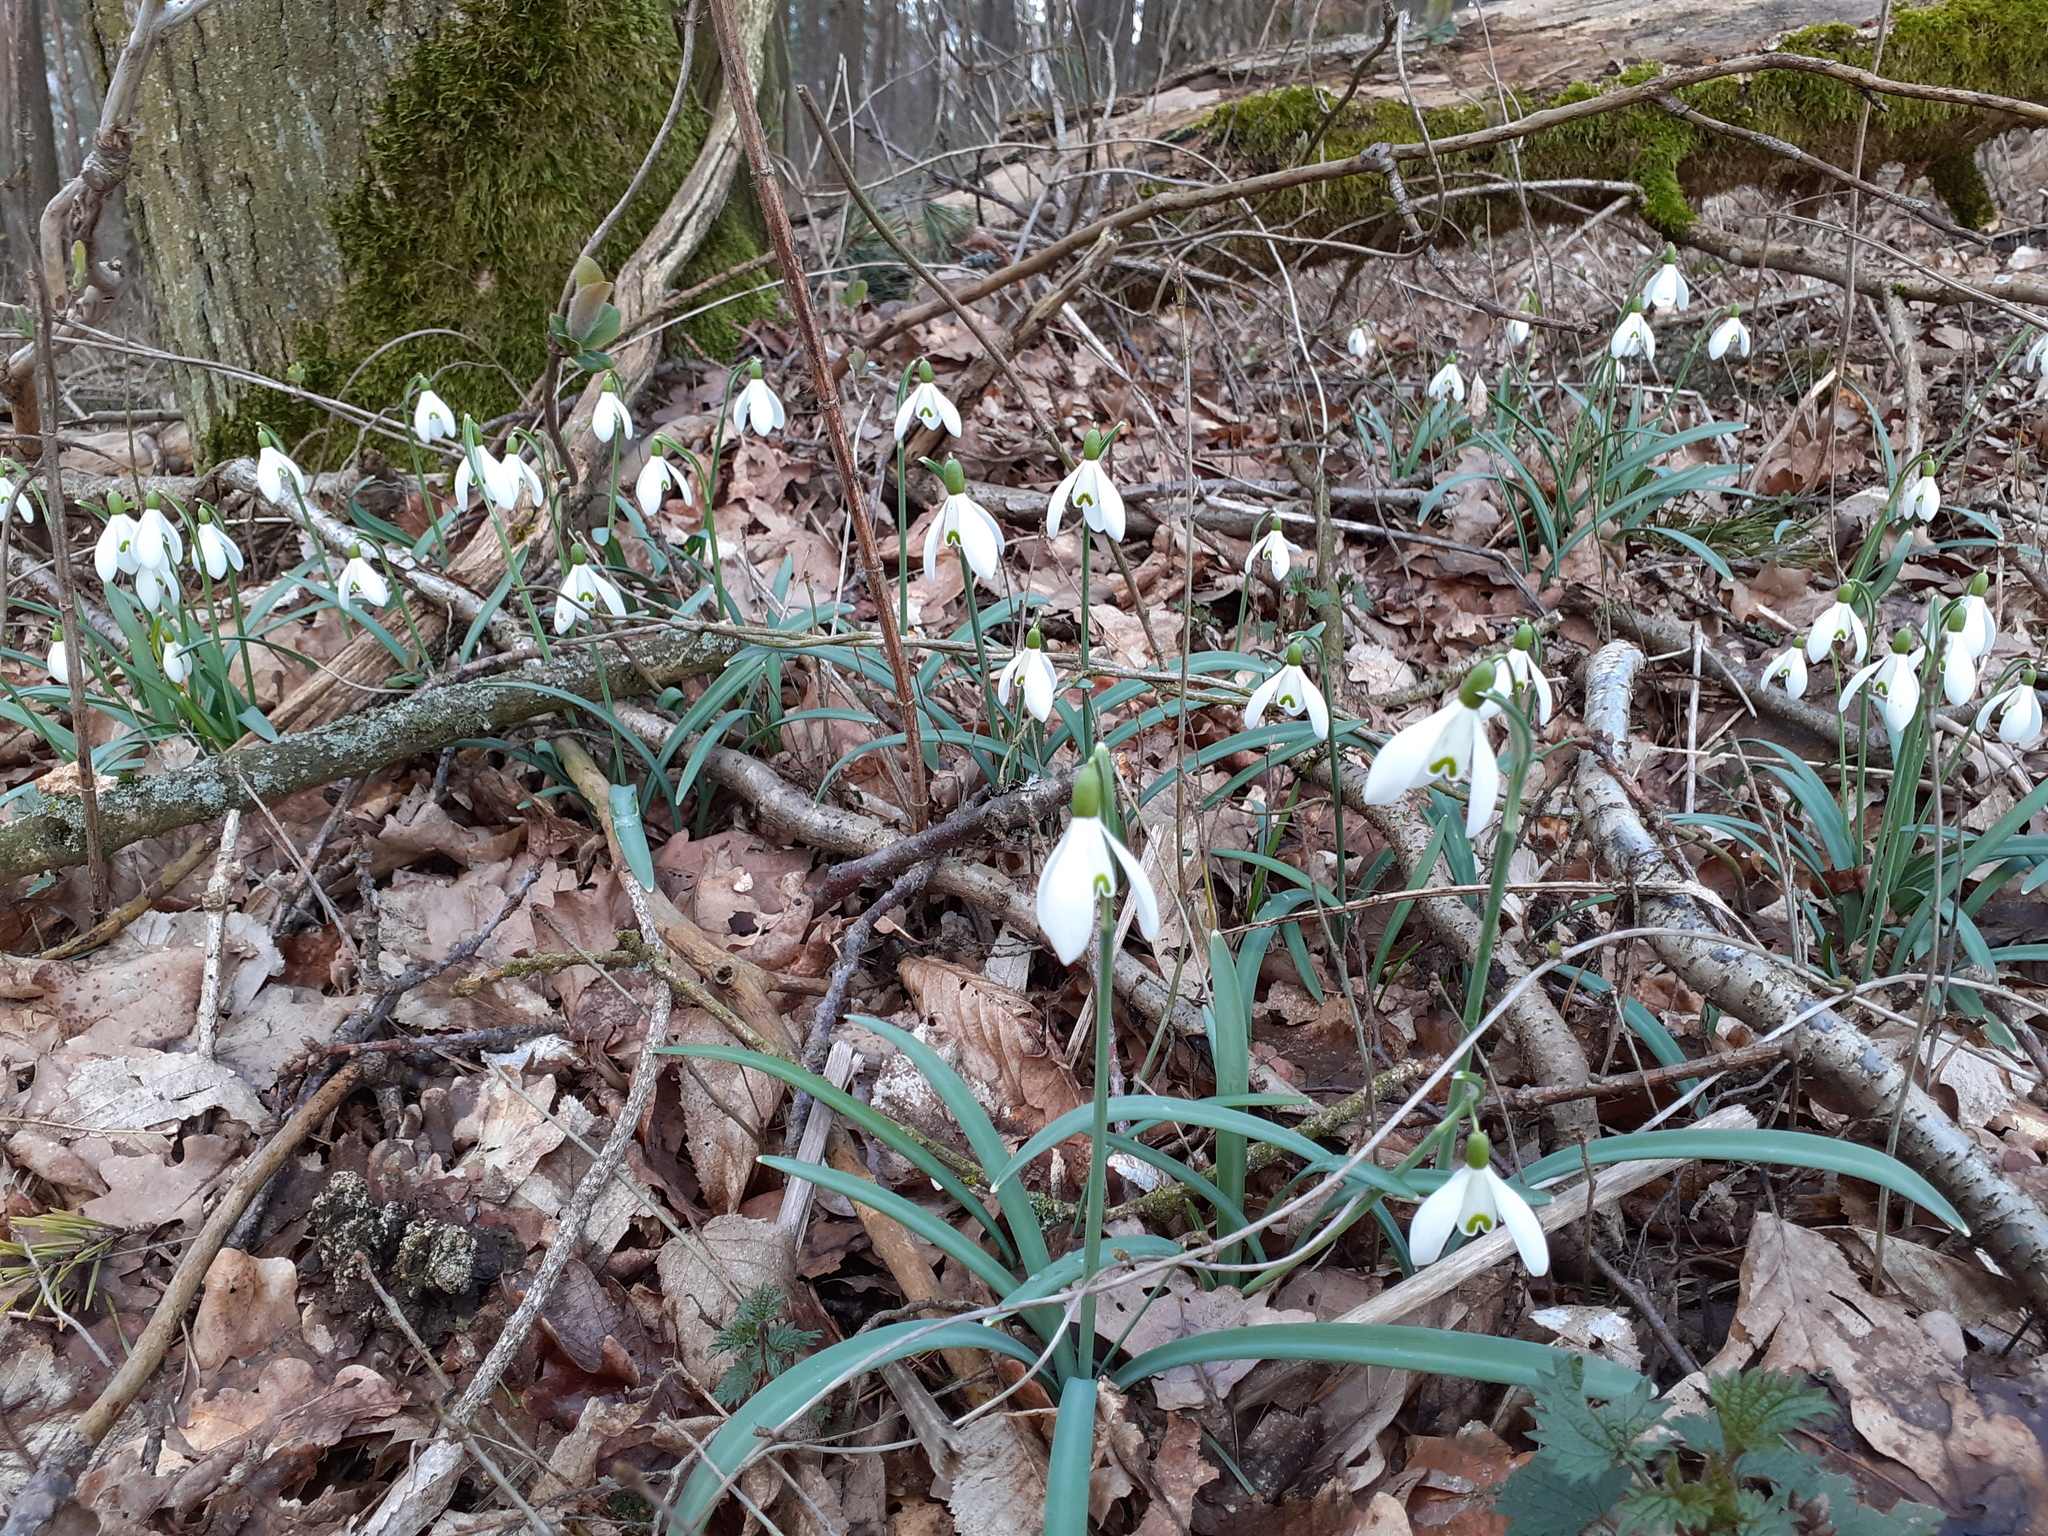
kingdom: Plantae
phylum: Tracheophyta
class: Liliopsida
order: Asparagales
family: Amaryllidaceae
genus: Galanthus
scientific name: Galanthus nivalis
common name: Snowdrop
